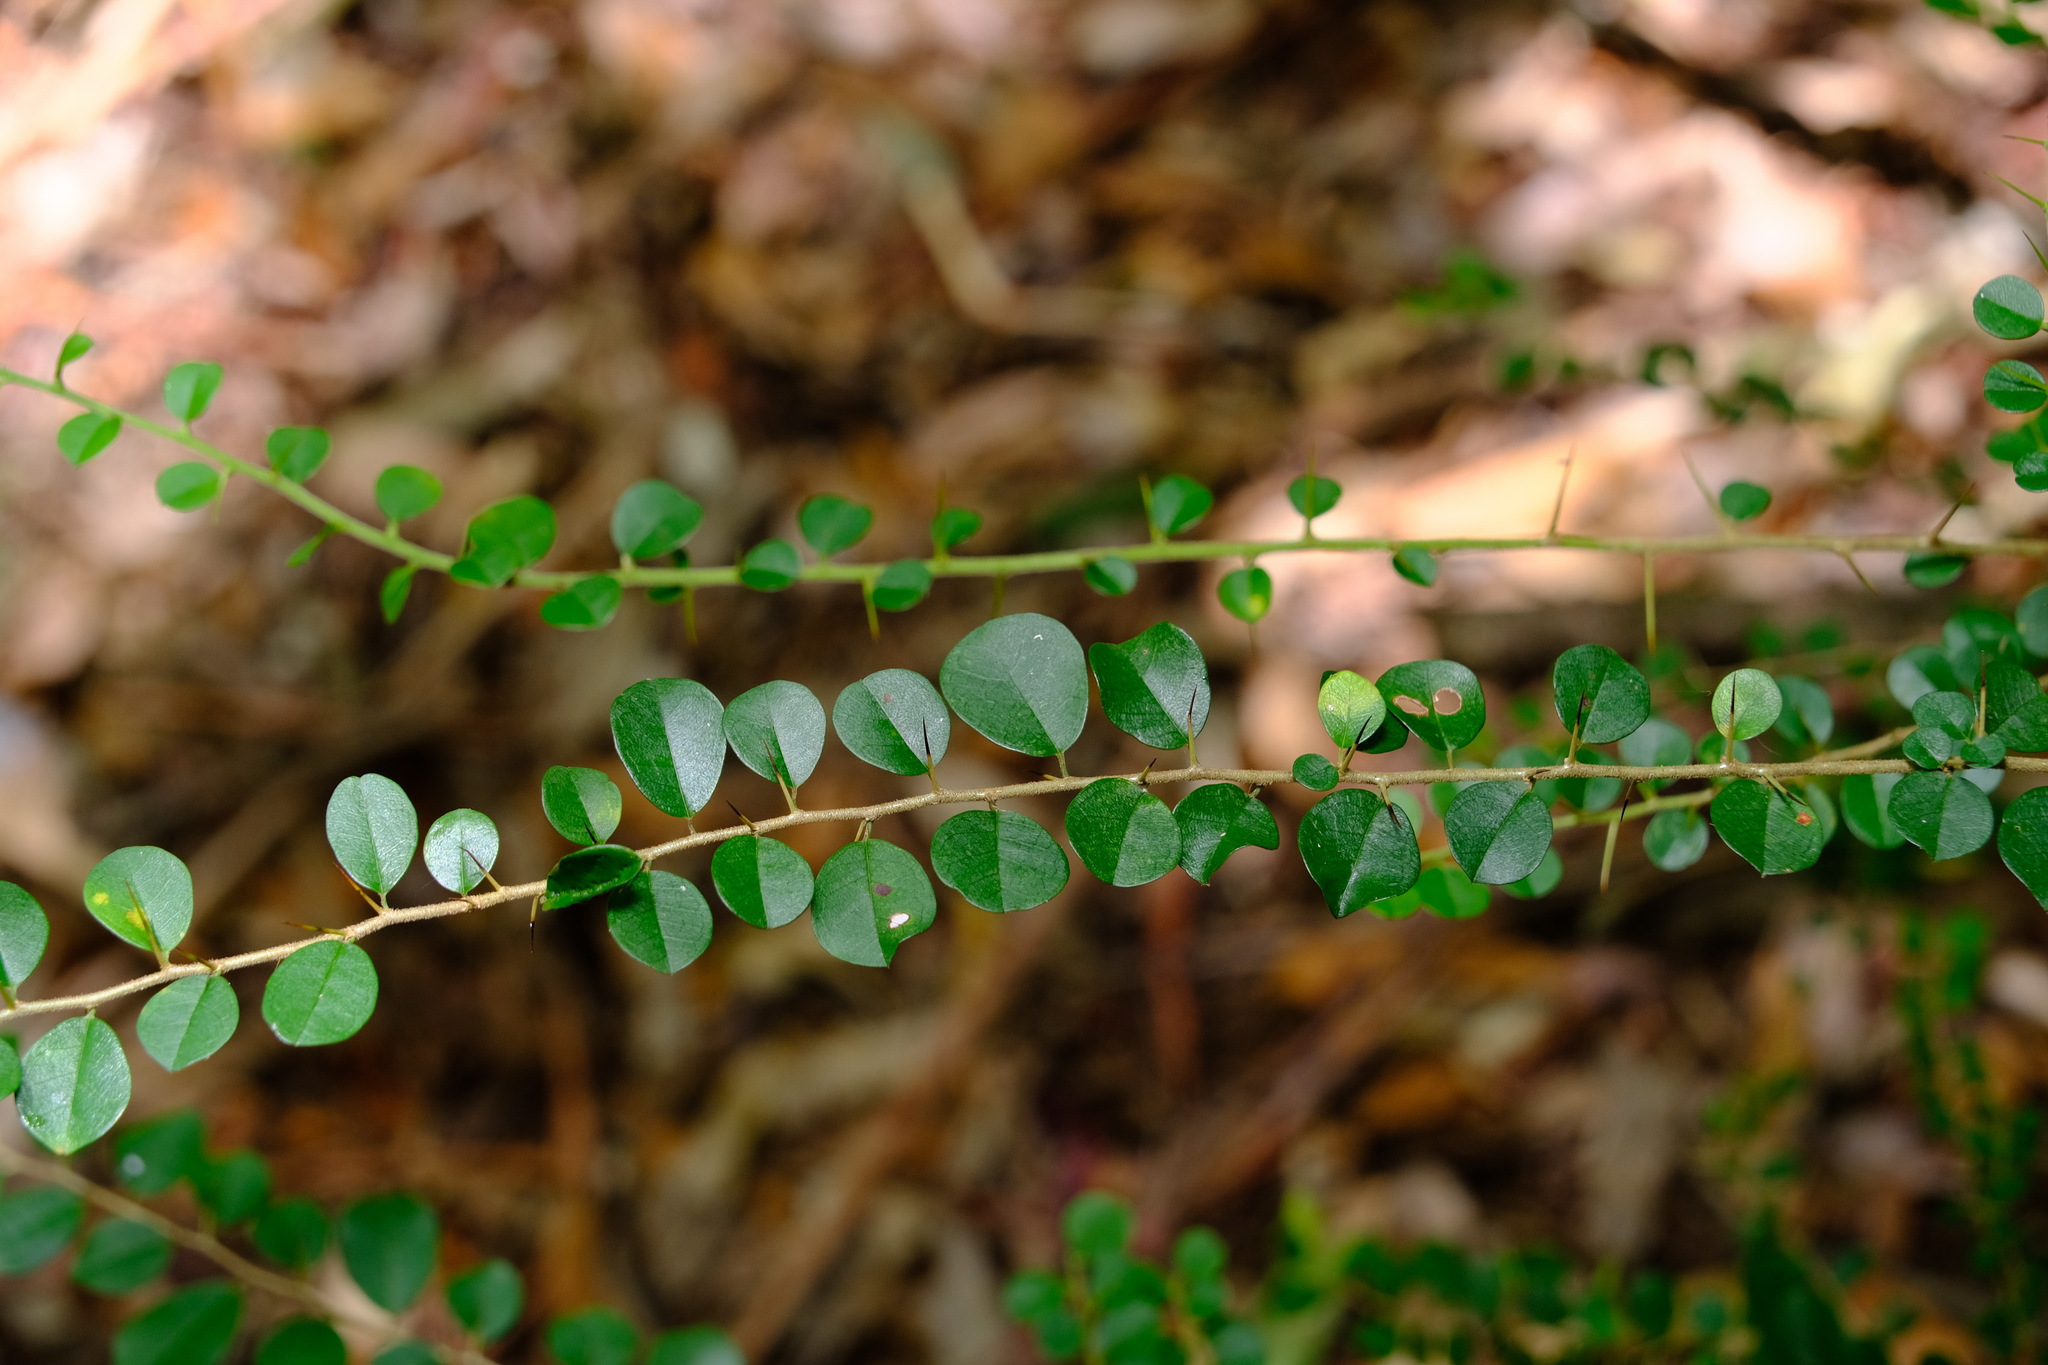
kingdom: Plantae
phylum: Tracheophyta
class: Magnoliopsida
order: Rosales
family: Moraceae
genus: Maclura
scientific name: Maclura cochinchinensis
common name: Cockspurthorn
